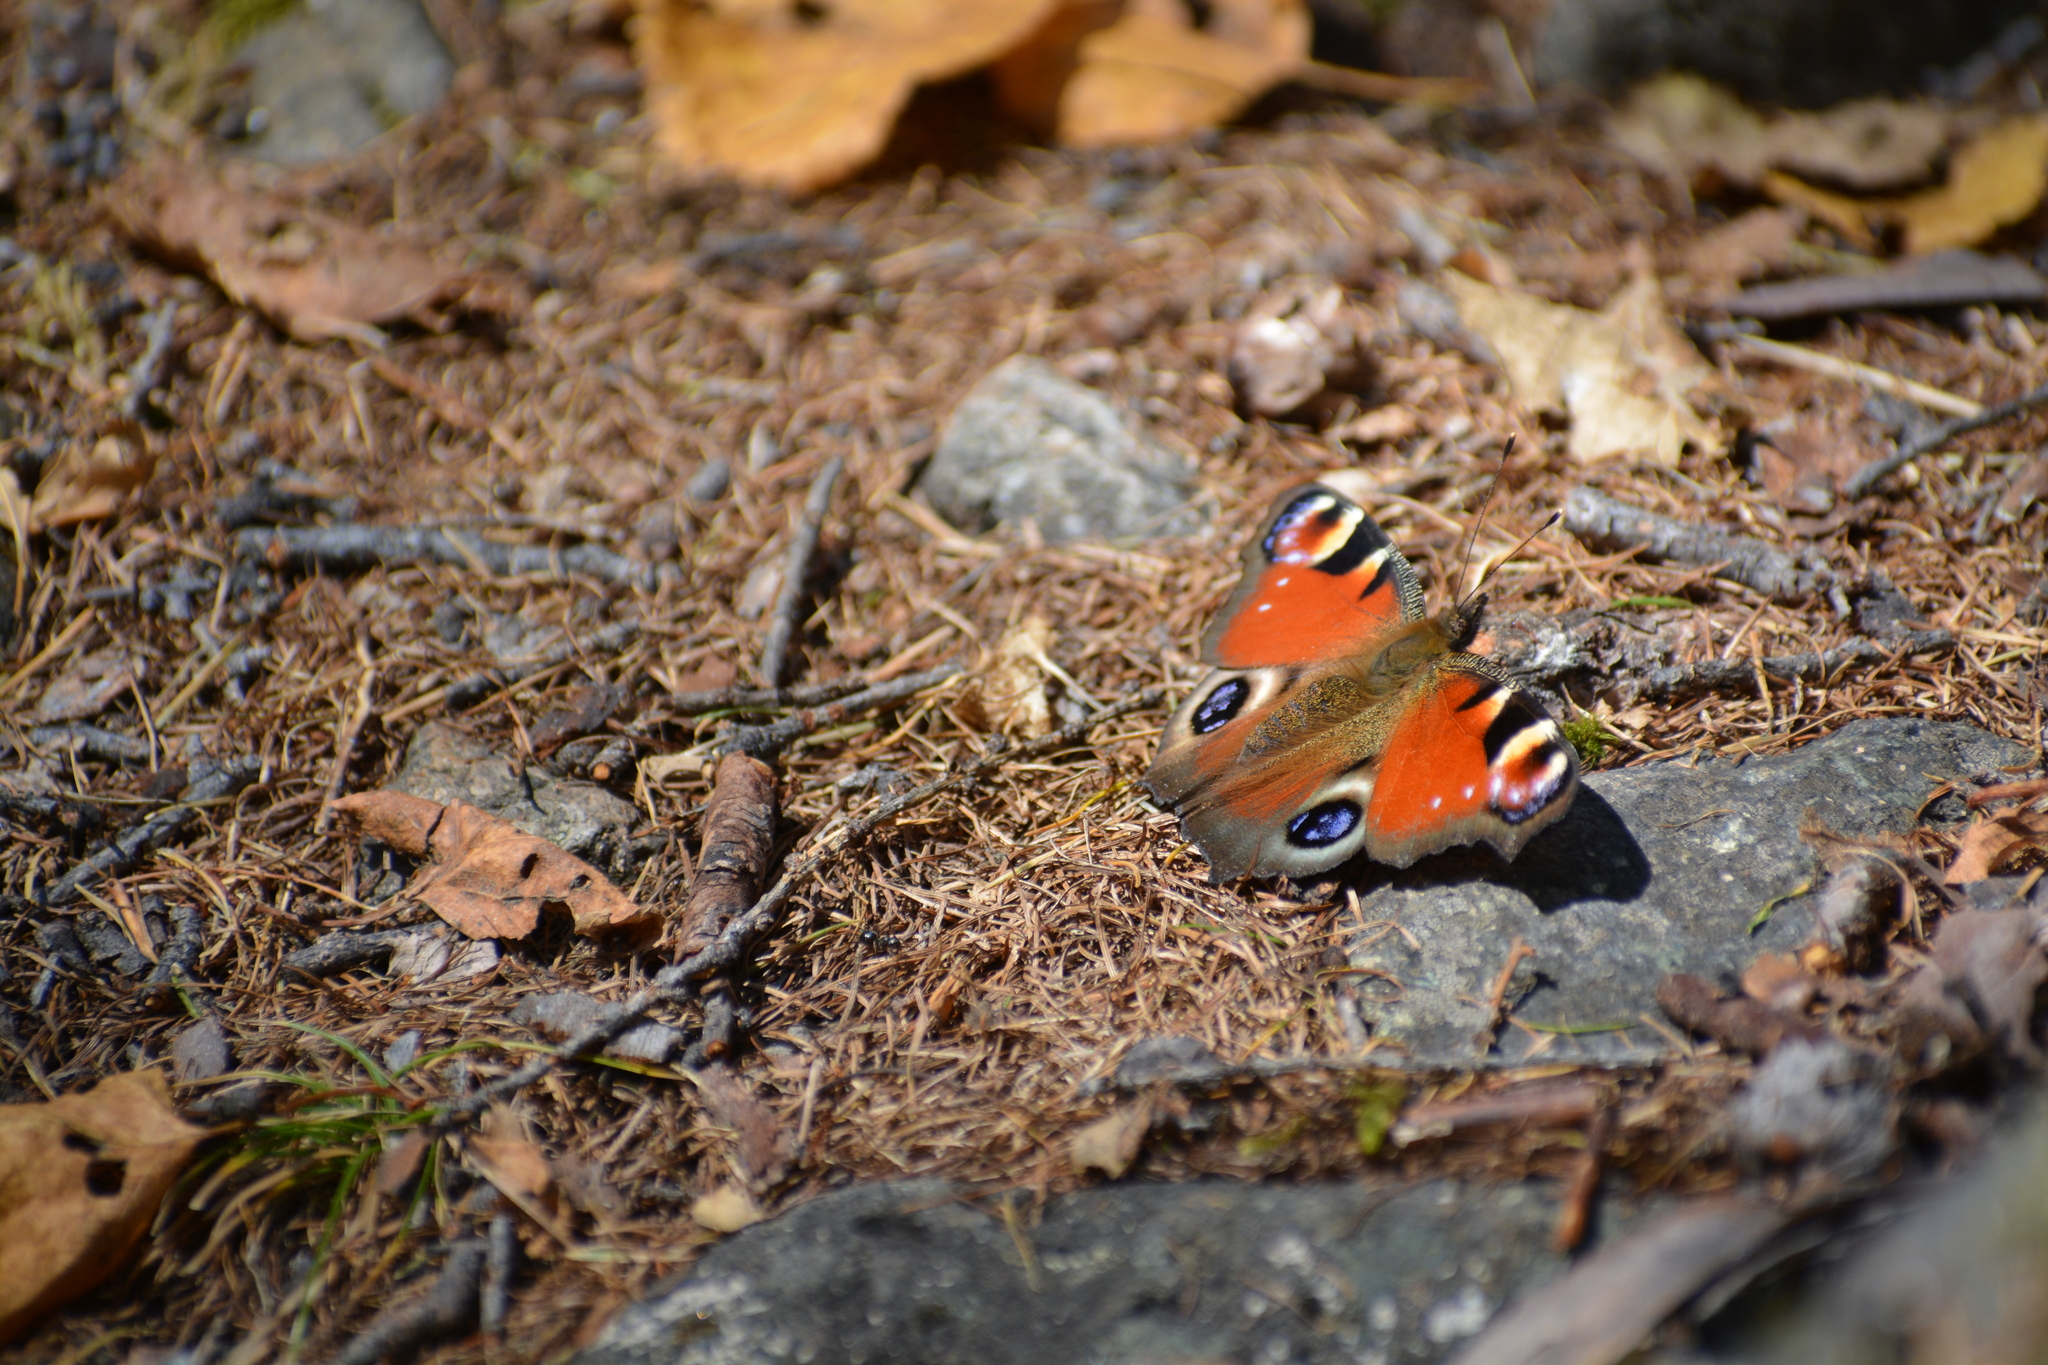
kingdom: Animalia
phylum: Arthropoda
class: Insecta
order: Lepidoptera
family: Nymphalidae
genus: Aglais
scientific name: Aglais io
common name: Peacock
